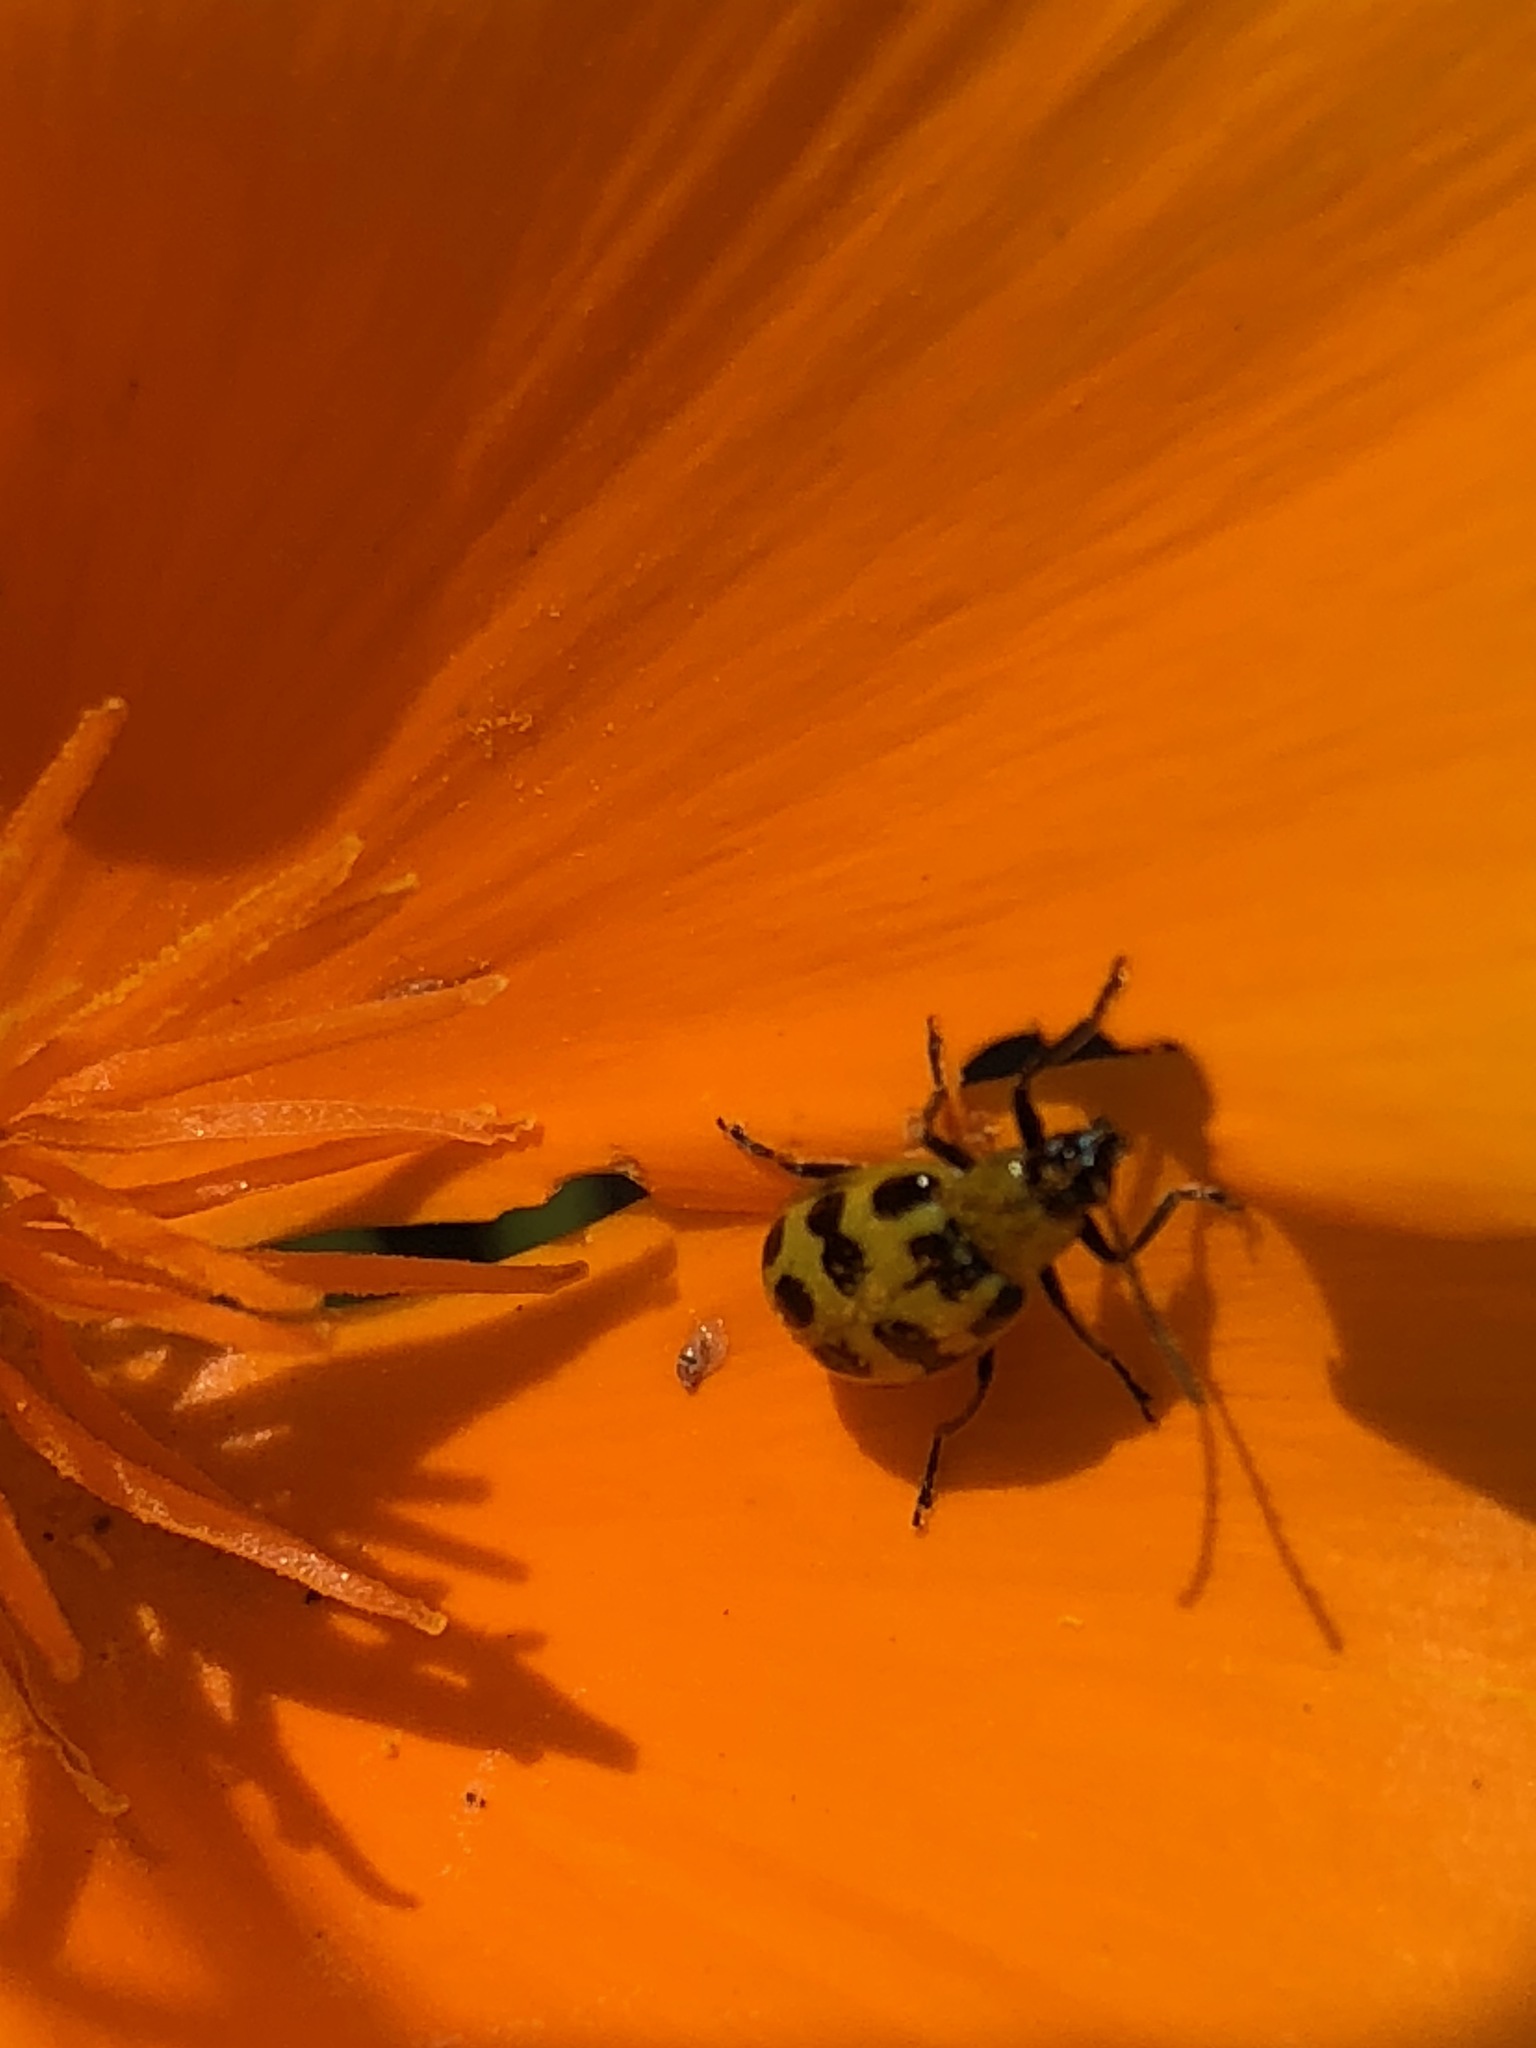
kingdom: Animalia
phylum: Arthropoda
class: Insecta
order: Coleoptera
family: Chrysomelidae
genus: Diabrotica
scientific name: Diabrotica undecimpunctata
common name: Spotted cucumber beetle
